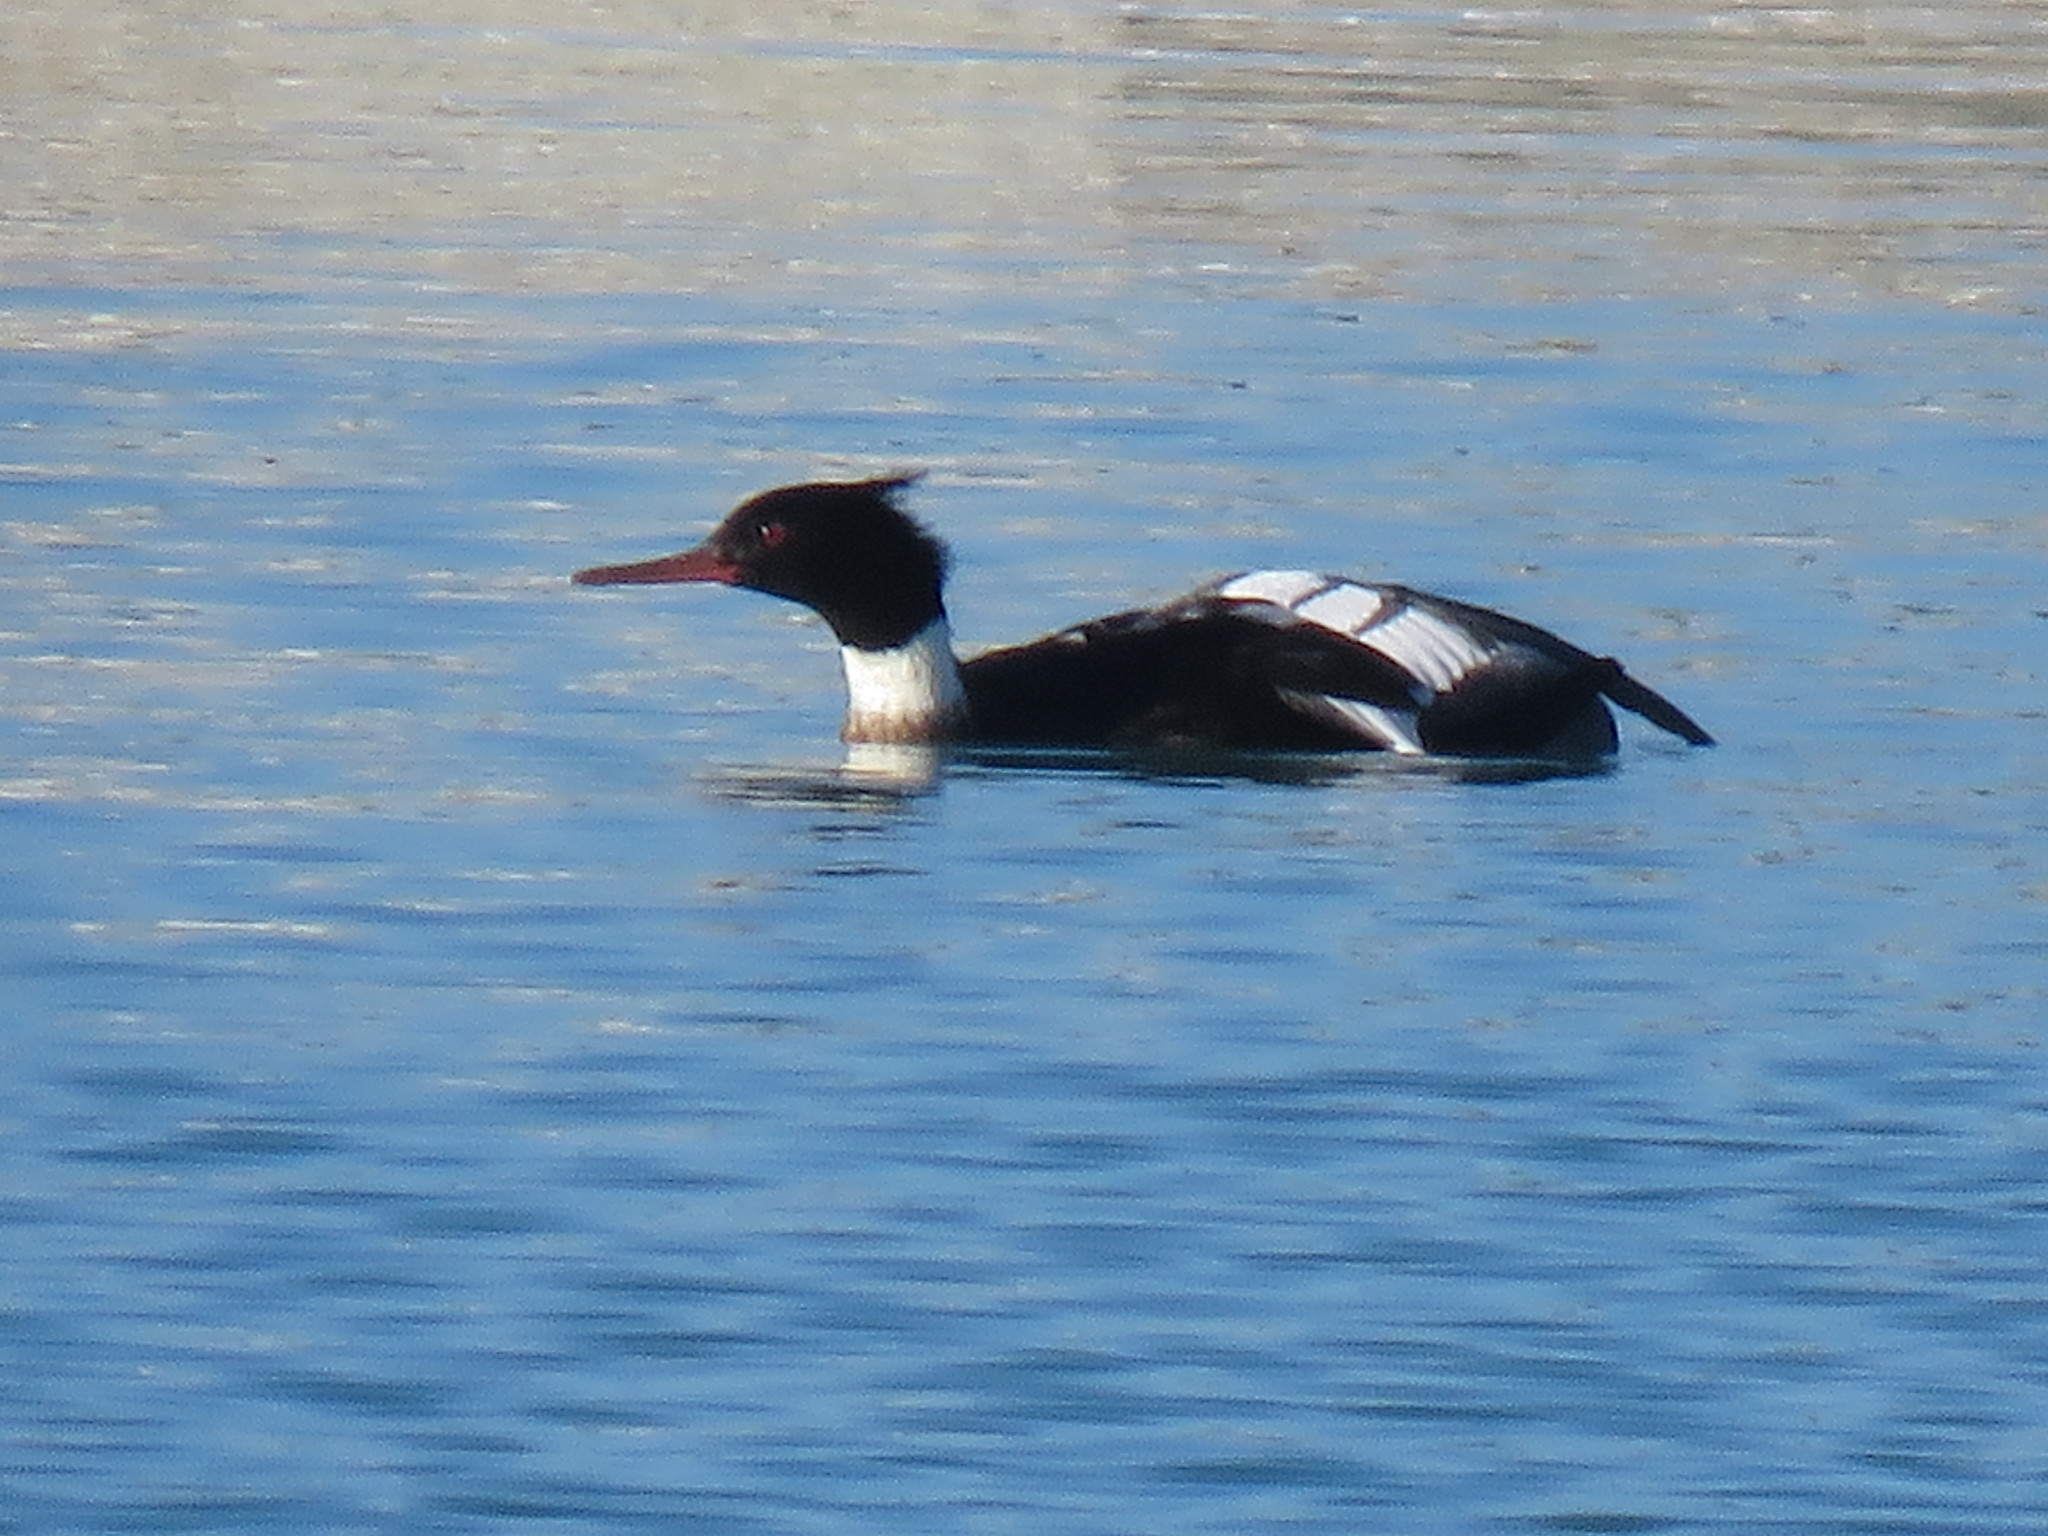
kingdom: Animalia
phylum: Chordata
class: Aves
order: Anseriformes
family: Anatidae
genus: Mergus
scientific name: Mergus serrator
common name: Red-breasted merganser
